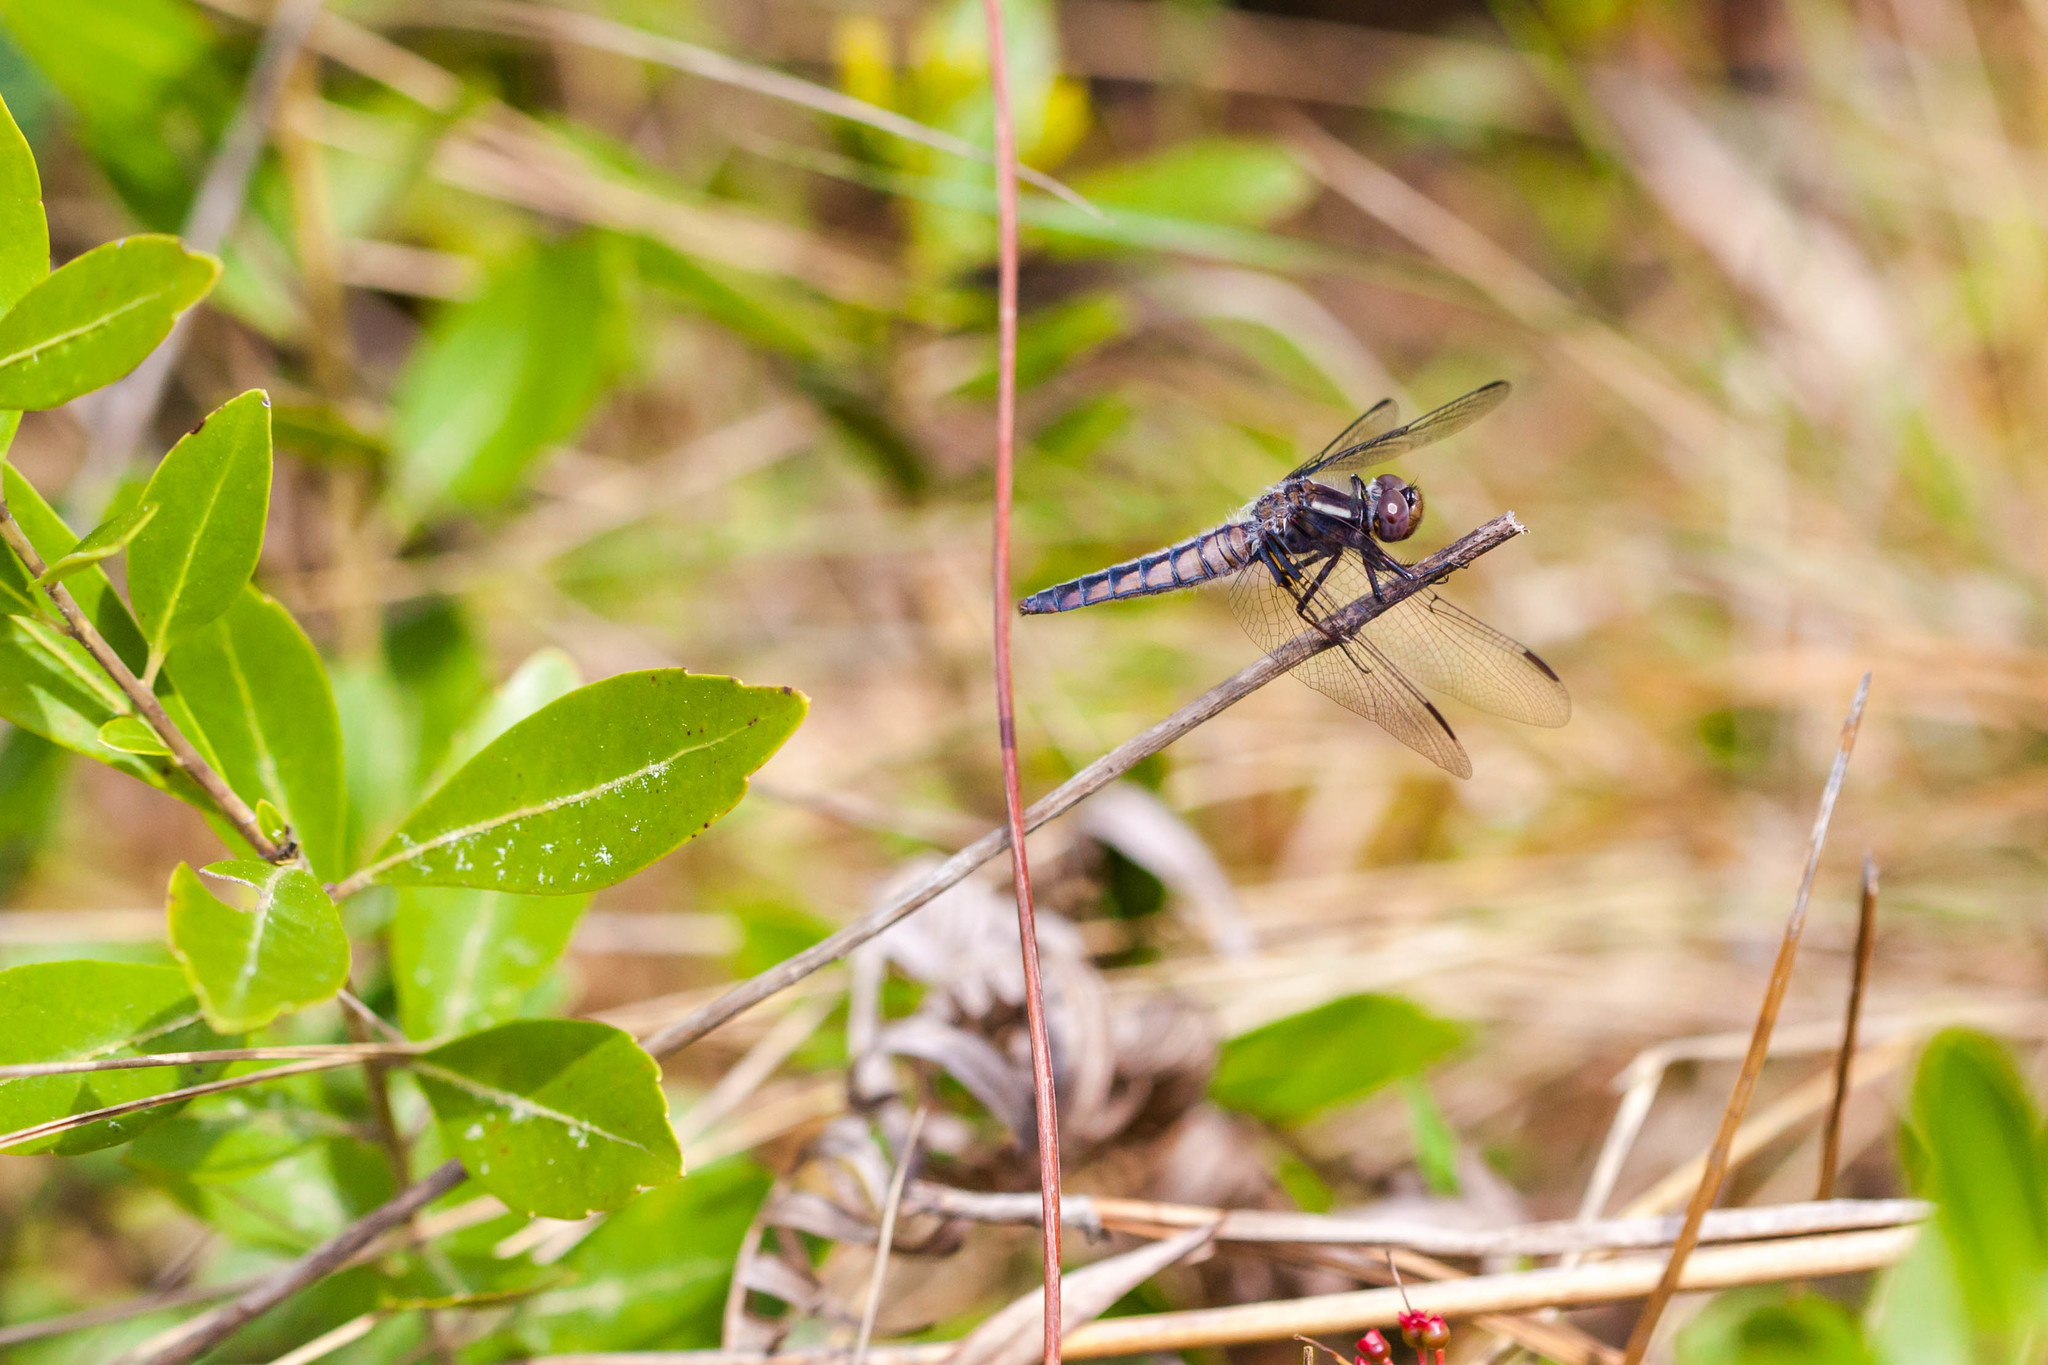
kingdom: Animalia
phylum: Arthropoda
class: Insecta
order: Odonata
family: Libellulidae
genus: Ladona
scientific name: Ladona deplanata
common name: Blue corporal
